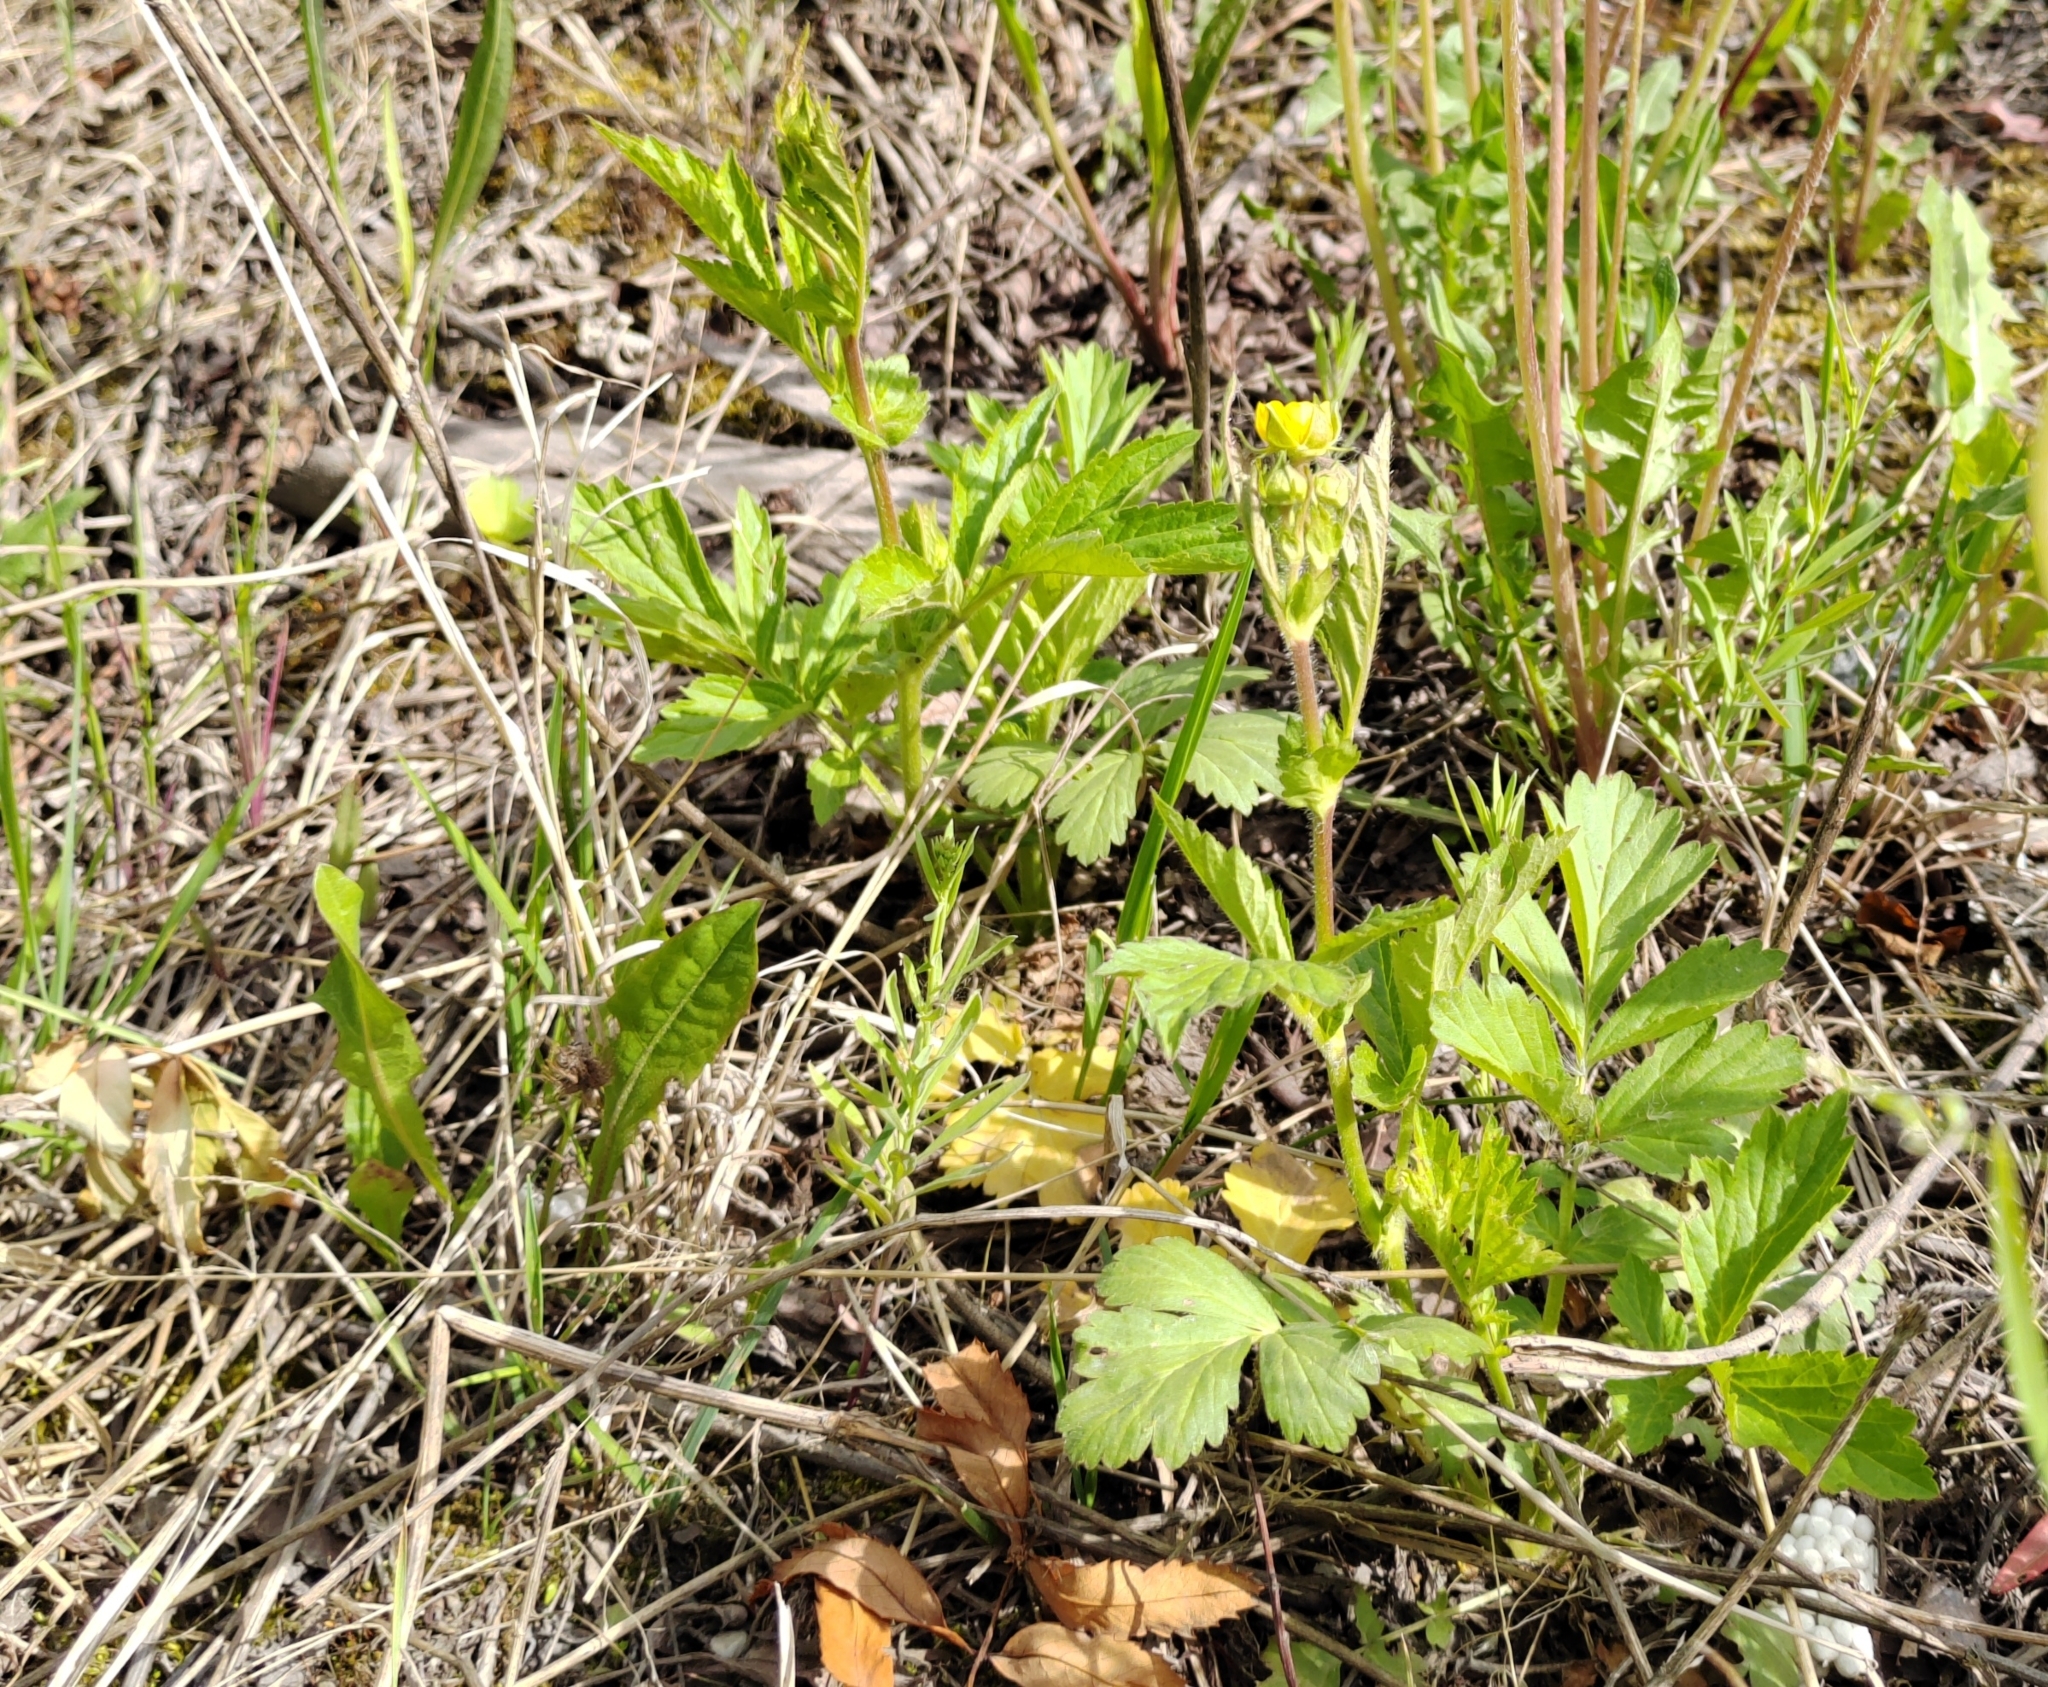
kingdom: Plantae
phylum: Tracheophyta
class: Magnoliopsida
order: Rosales
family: Rosaceae
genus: Geum
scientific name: Geum aleppicum
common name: Yellow avens
